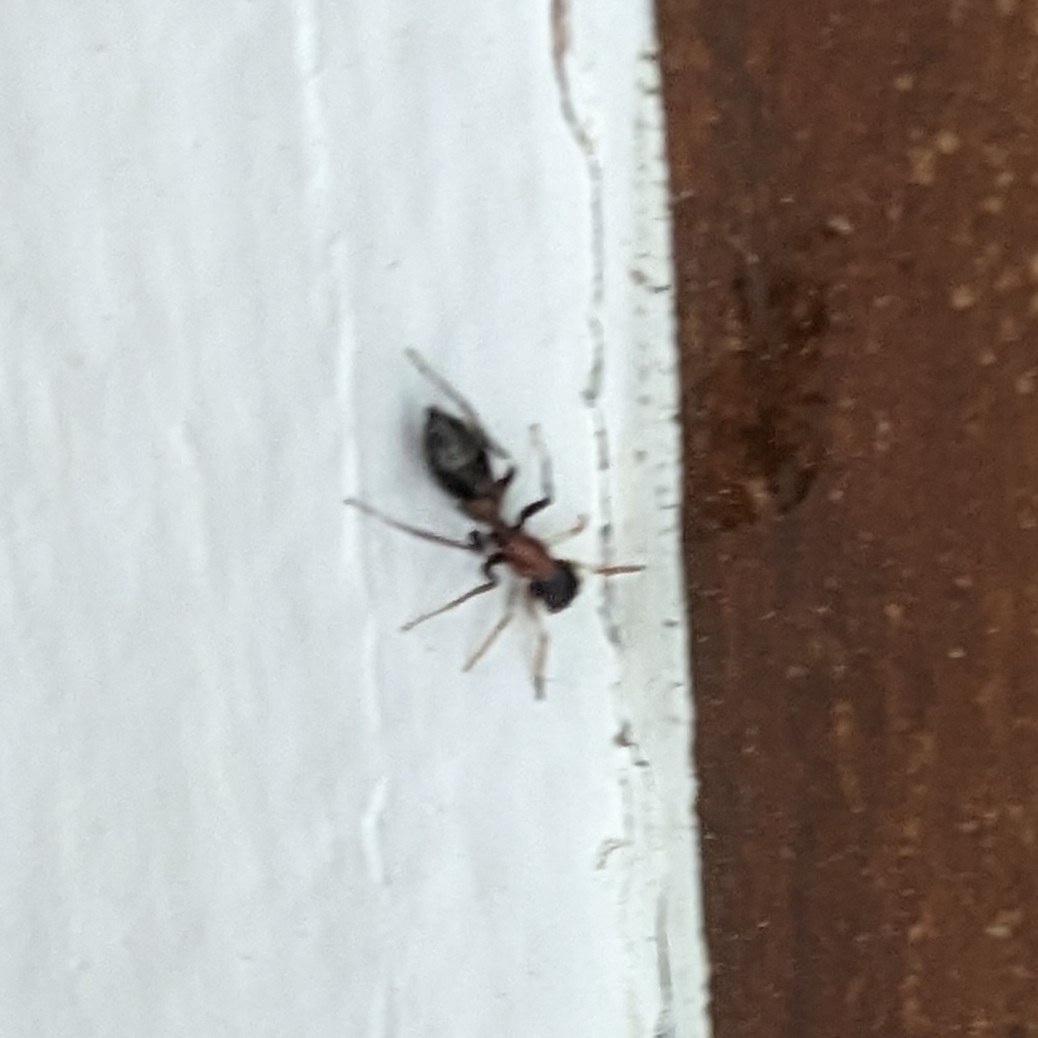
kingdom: Animalia
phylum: Arthropoda
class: Arachnida
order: Araneae
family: Salticidae
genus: Myrmarachne
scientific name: Myrmarachne melanocephala
